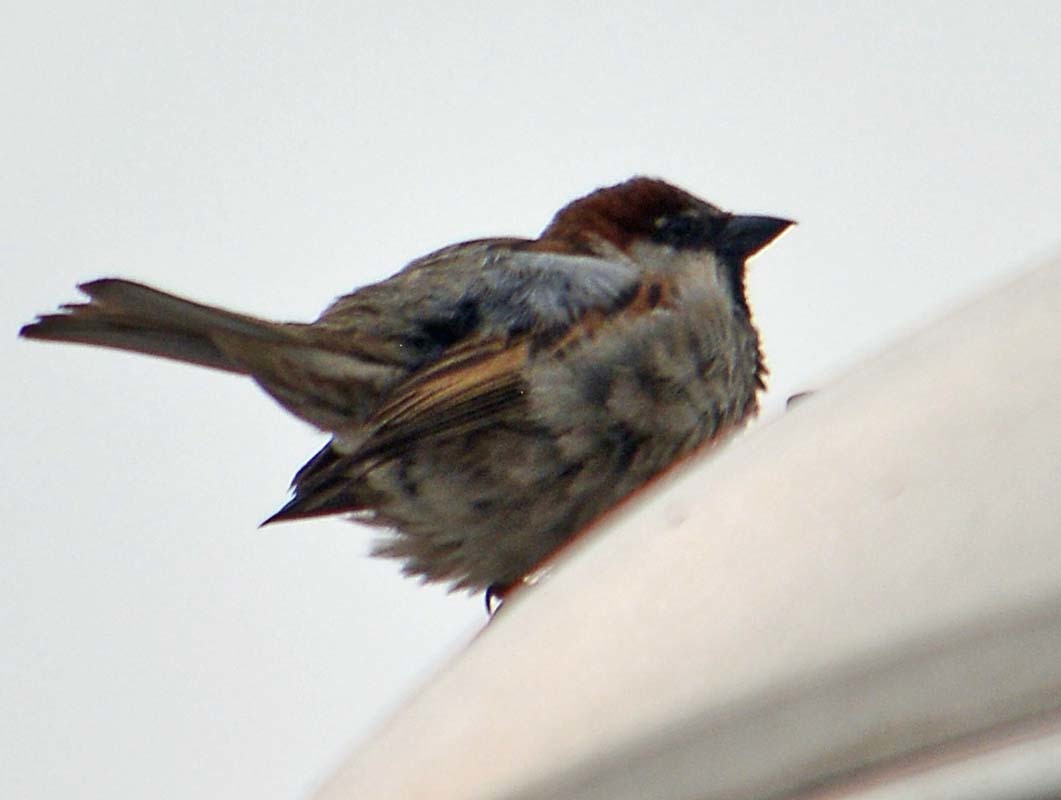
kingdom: Animalia
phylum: Chordata
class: Aves
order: Passeriformes
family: Passeridae
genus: Passer
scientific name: Passer domesticus
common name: House sparrow
